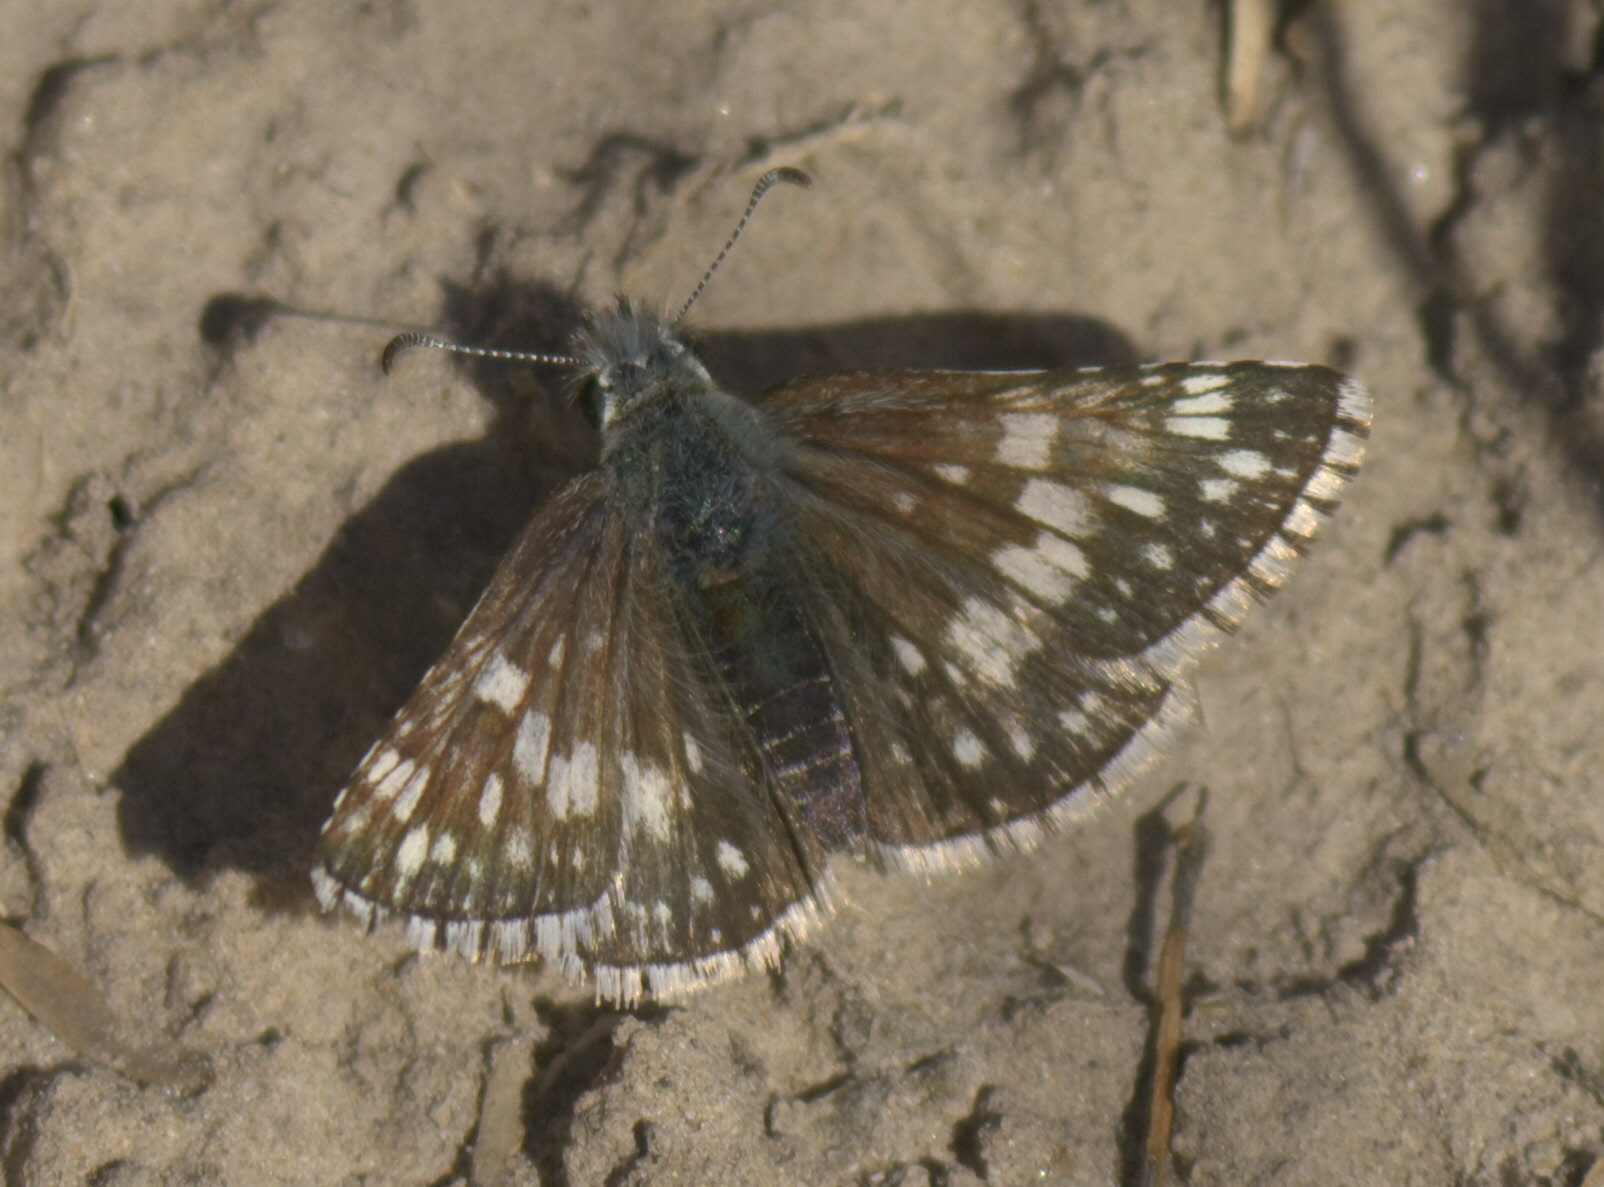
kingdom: Animalia
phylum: Arthropoda
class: Insecta
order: Lepidoptera
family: Hesperiidae
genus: Burnsius
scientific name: Burnsius
